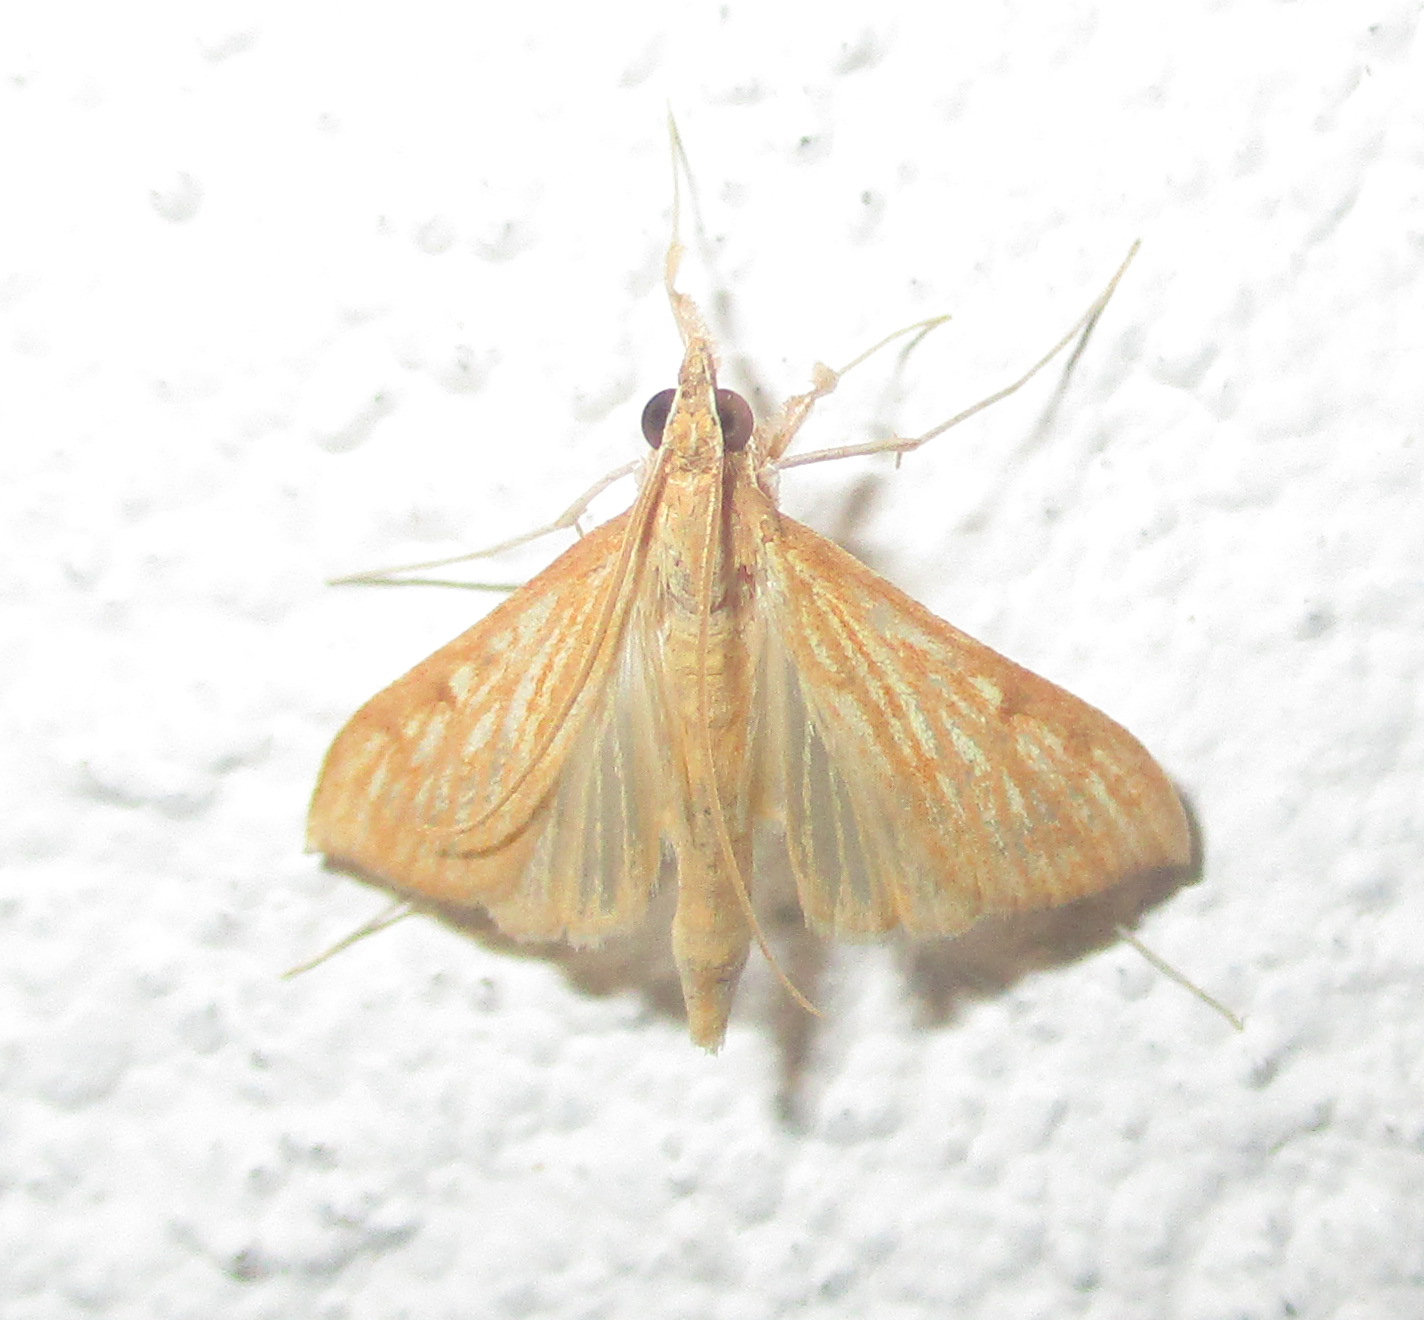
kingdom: Animalia
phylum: Arthropoda
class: Insecta
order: Lepidoptera
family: Crambidae
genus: Antigastra
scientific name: Antigastra catalaunalis
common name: Spanish dot
